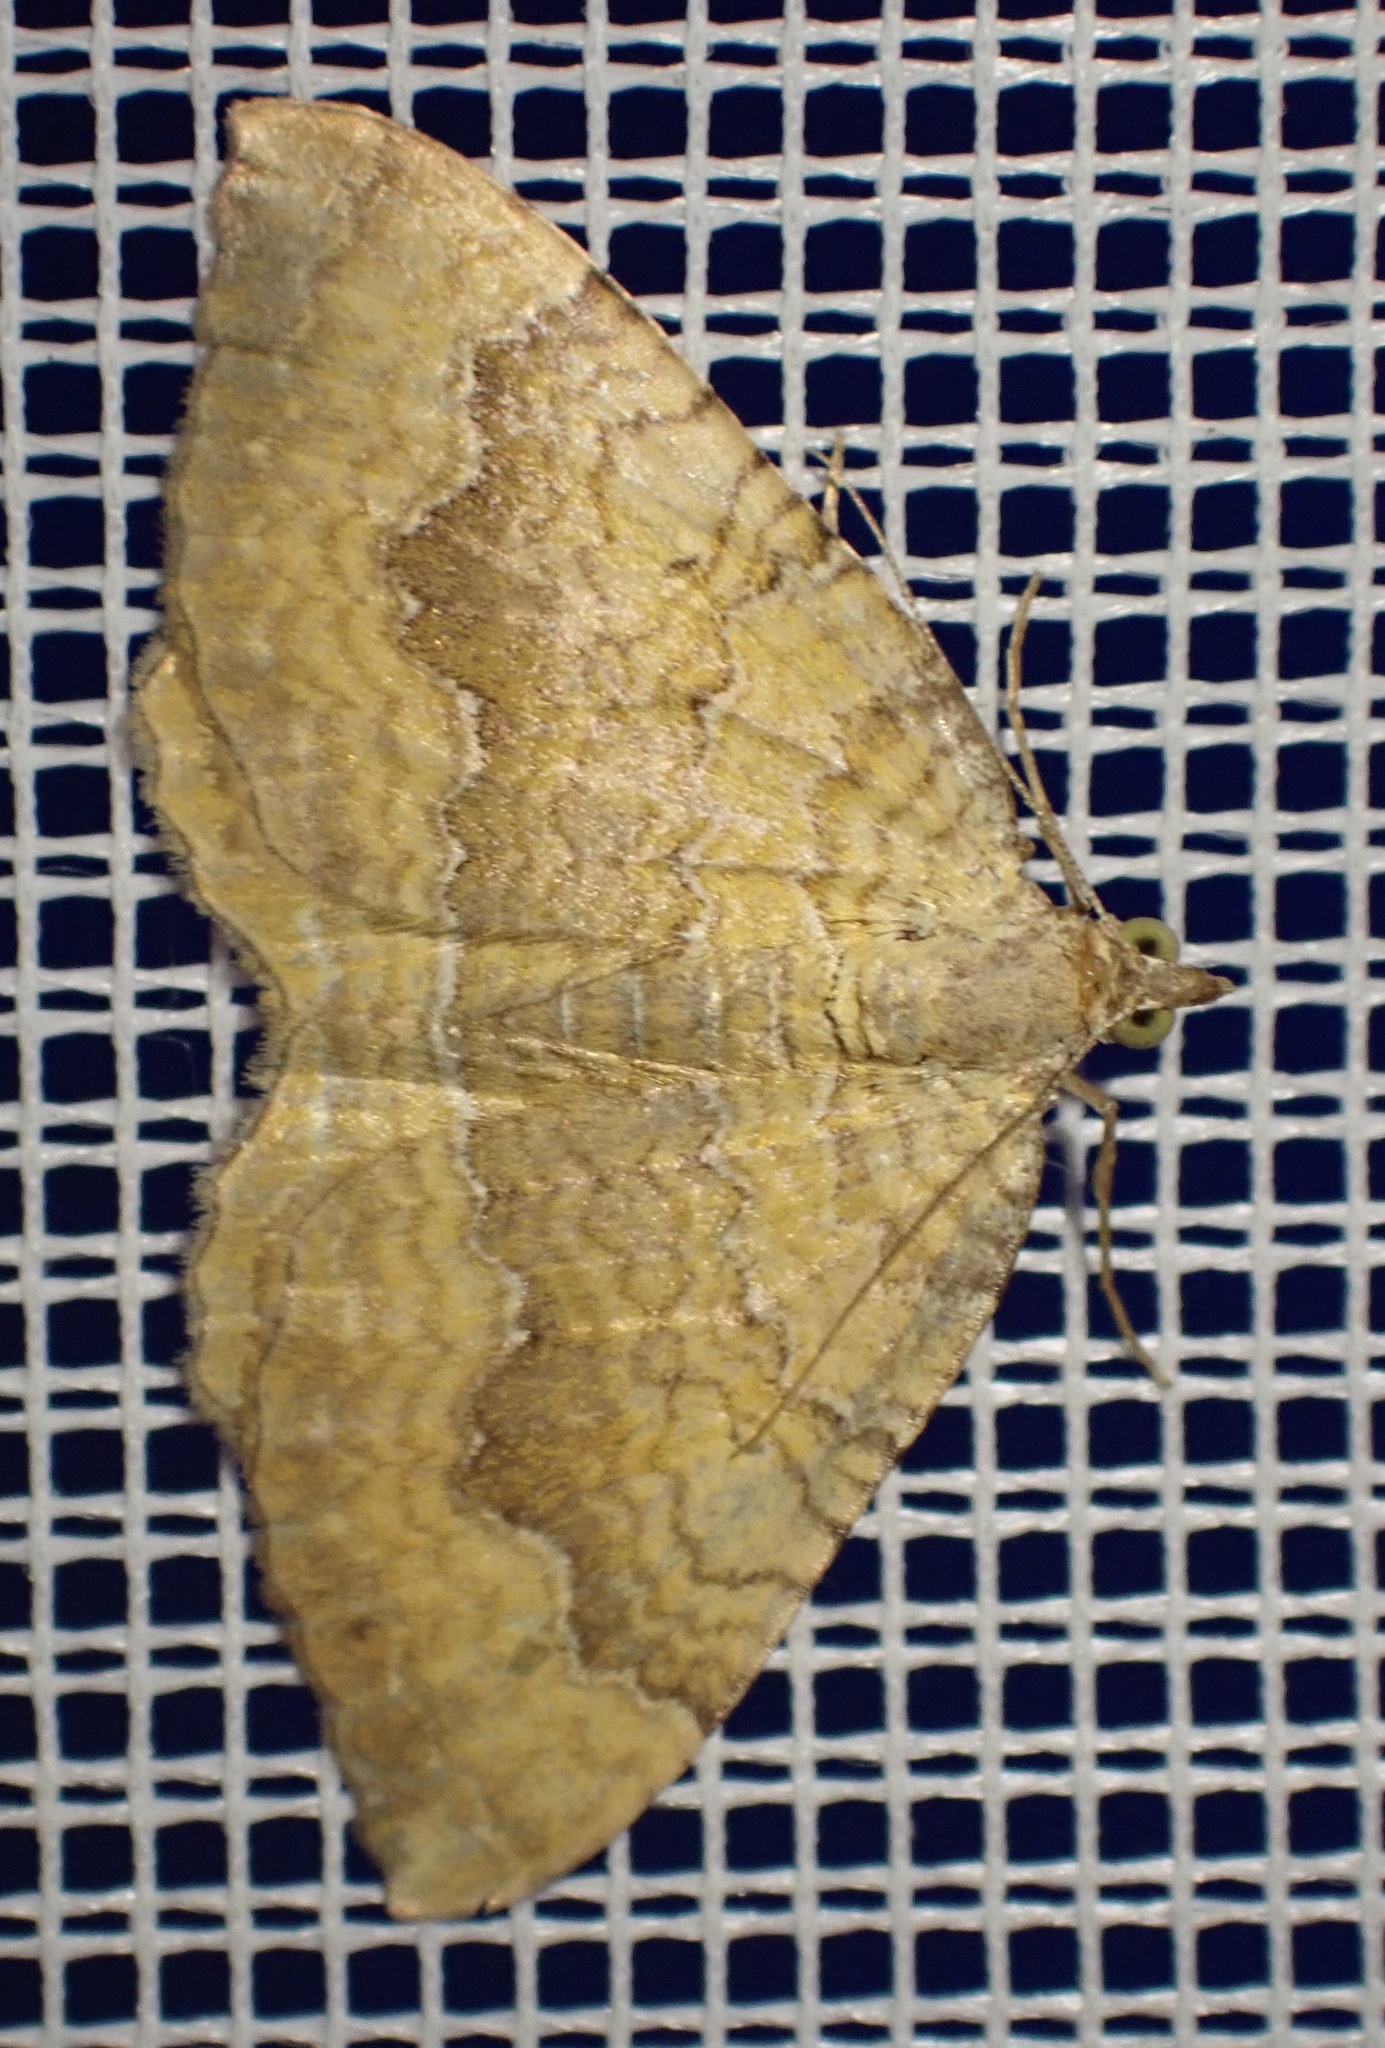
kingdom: Animalia
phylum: Arthropoda
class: Insecta
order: Lepidoptera
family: Geometridae
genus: Camptogramma
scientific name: Camptogramma bilineata
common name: Yellow shell
